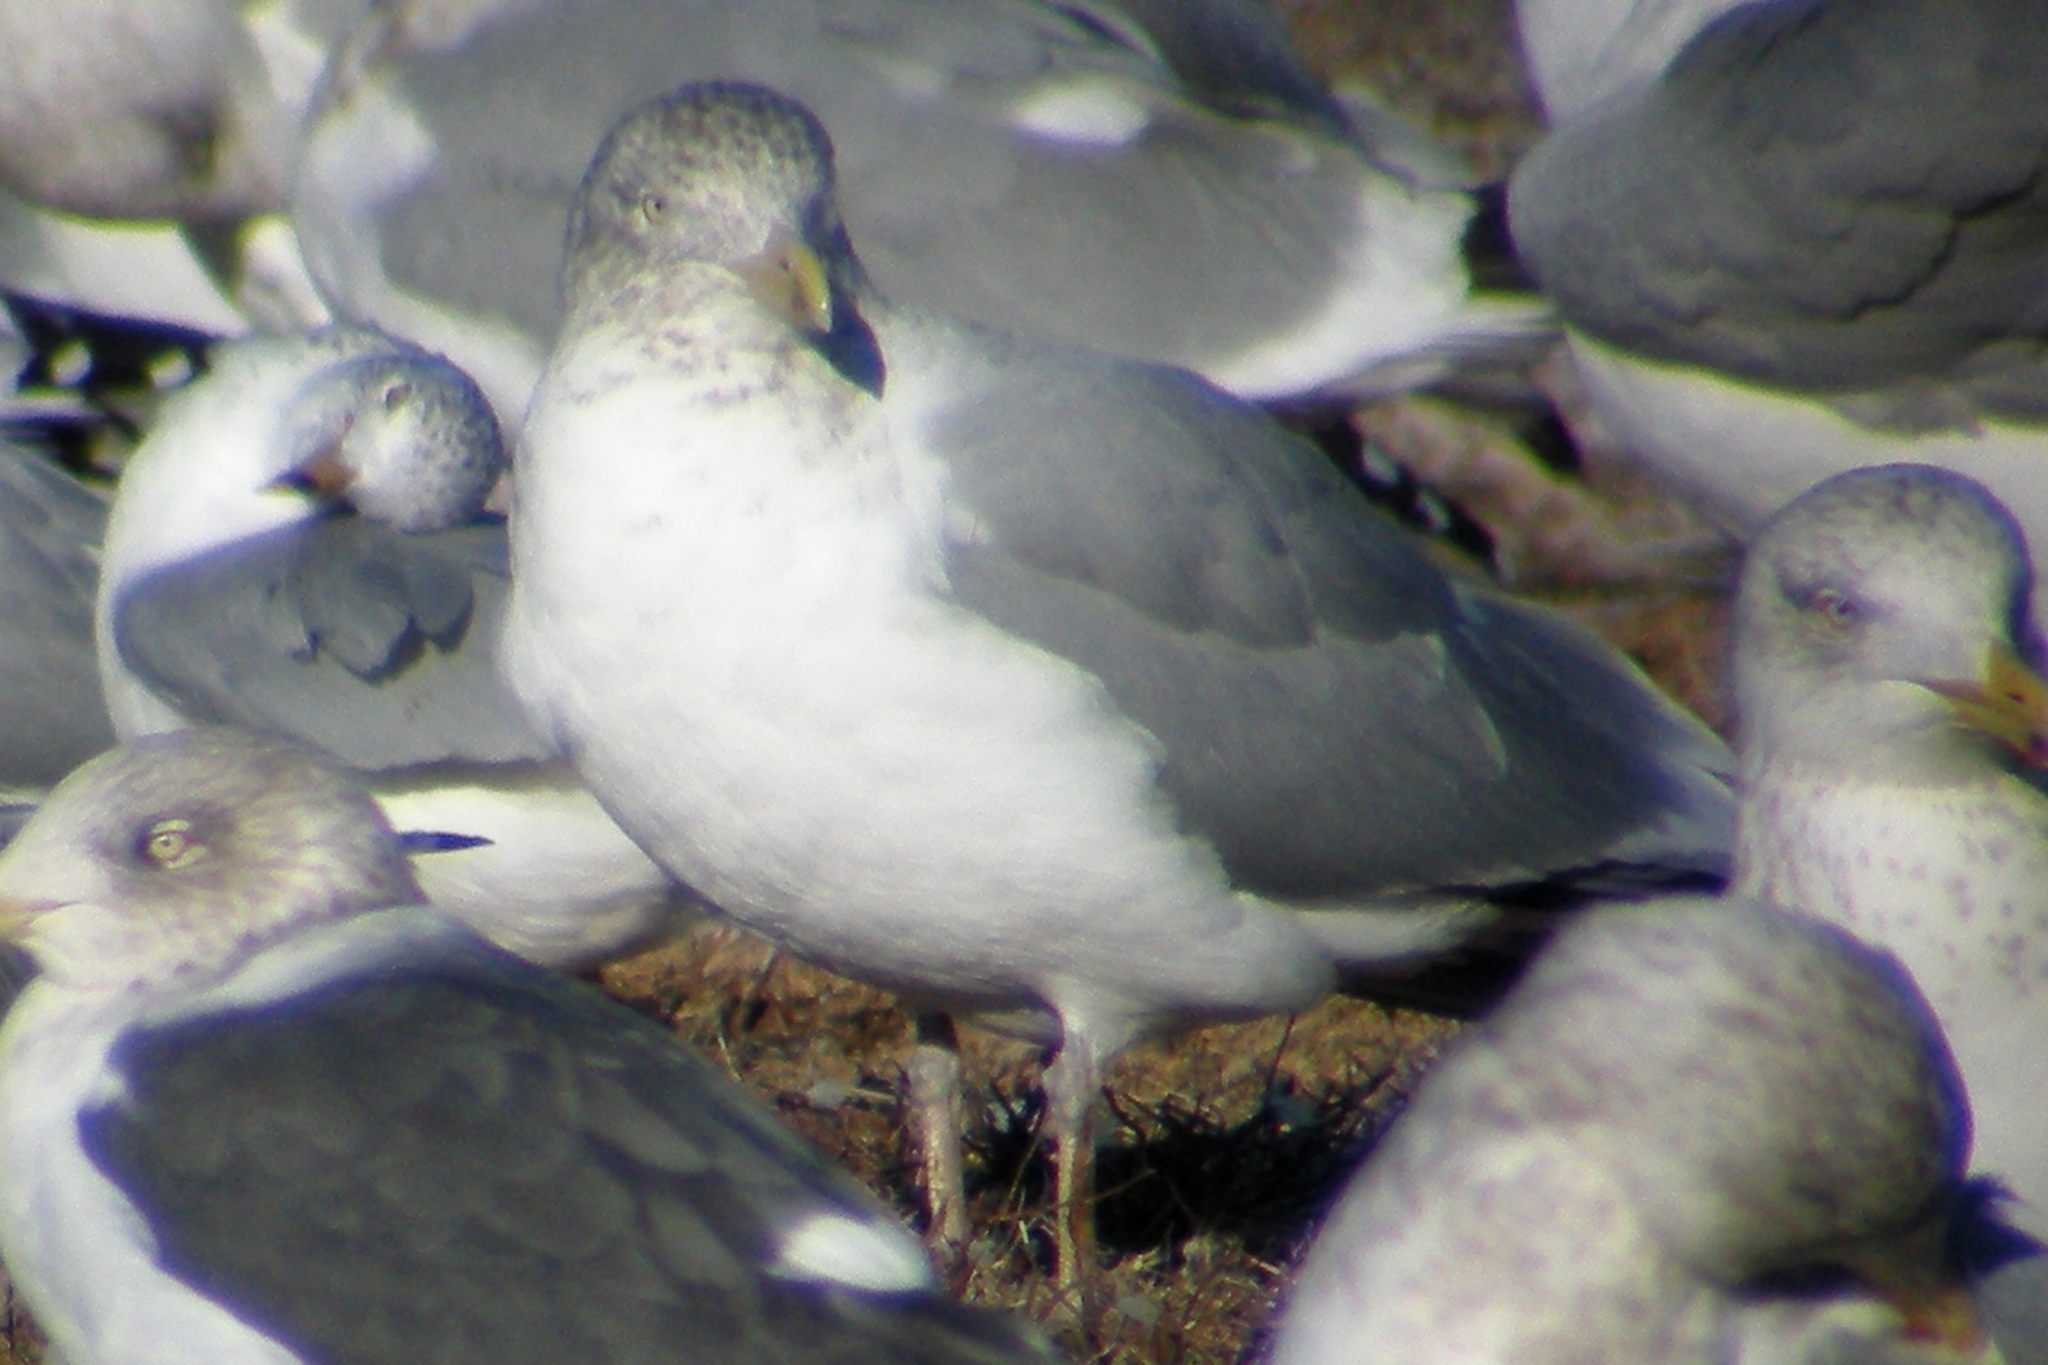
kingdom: Animalia
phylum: Chordata
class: Aves
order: Charadriiformes
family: Laridae
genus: Larus
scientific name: Larus argentatus
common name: Herring gull
